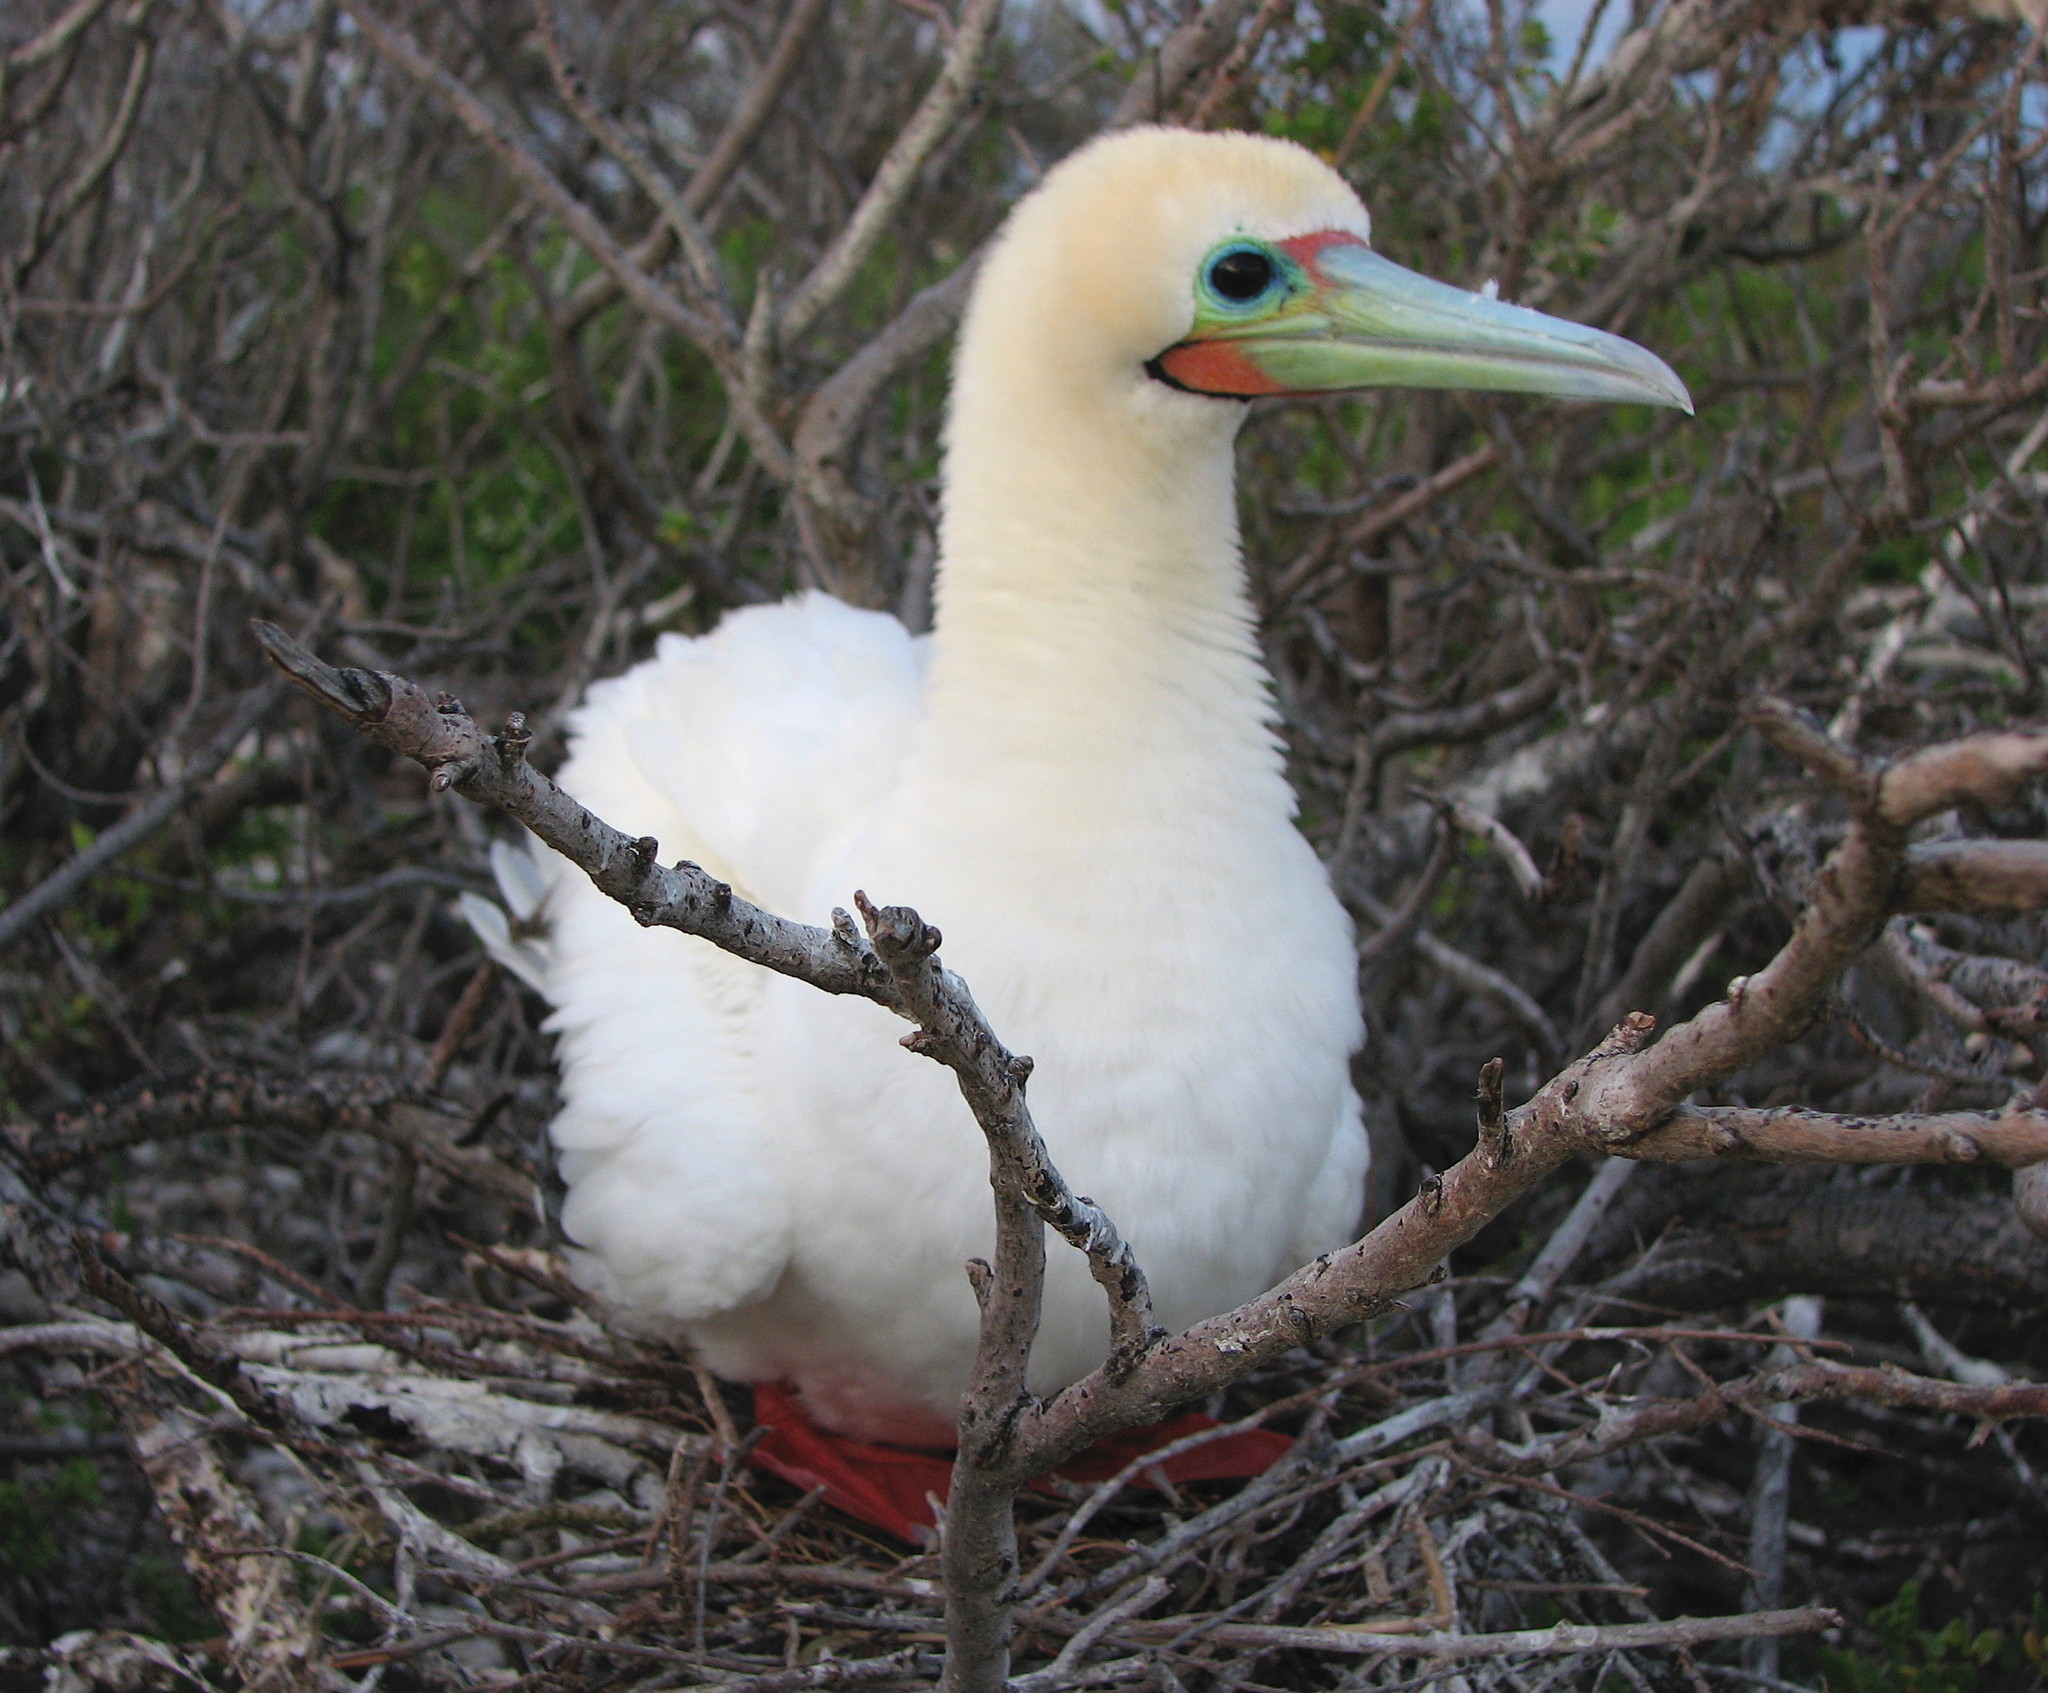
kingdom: Animalia
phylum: Chordata
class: Aves
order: Suliformes
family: Sulidae
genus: Sula
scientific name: Sula sula
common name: Red-footed booby
